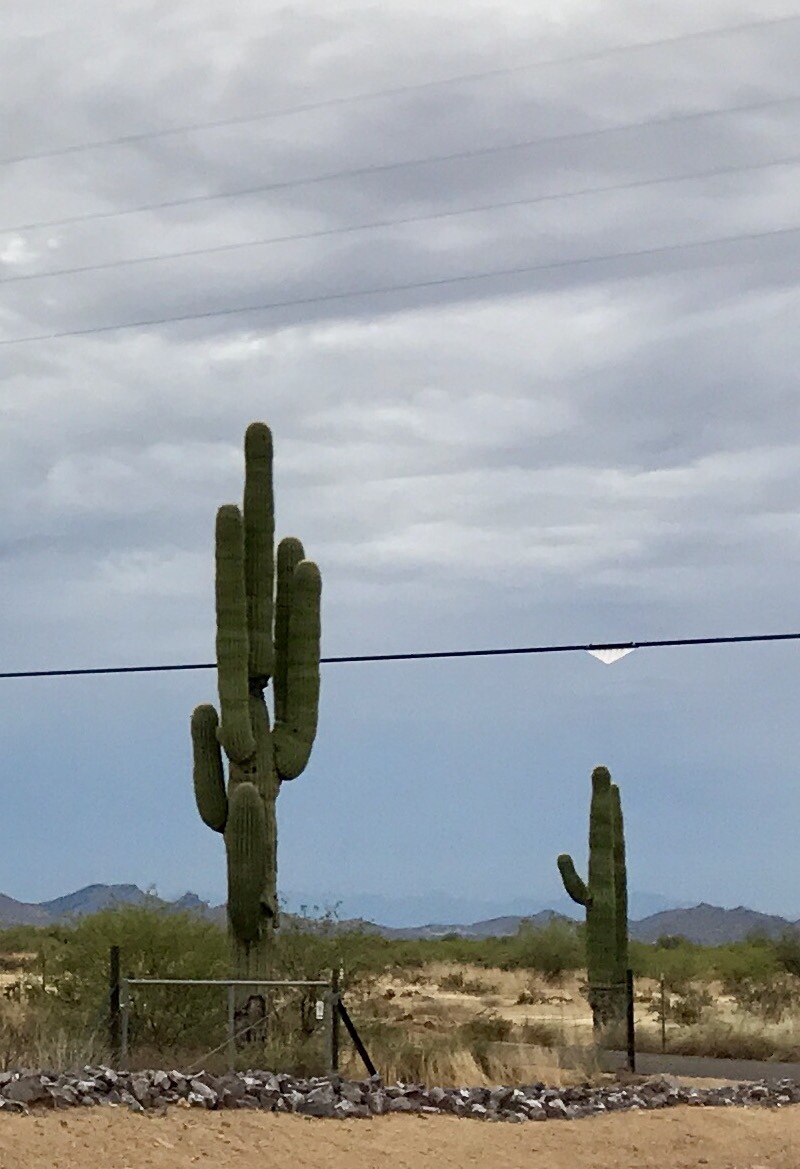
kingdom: Plantae
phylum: Tracheophyta
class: Magnoliopsida
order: Caryophyllales
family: Cactaceae
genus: Carnegiea
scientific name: Carnegiea gigantea
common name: Saguaro
